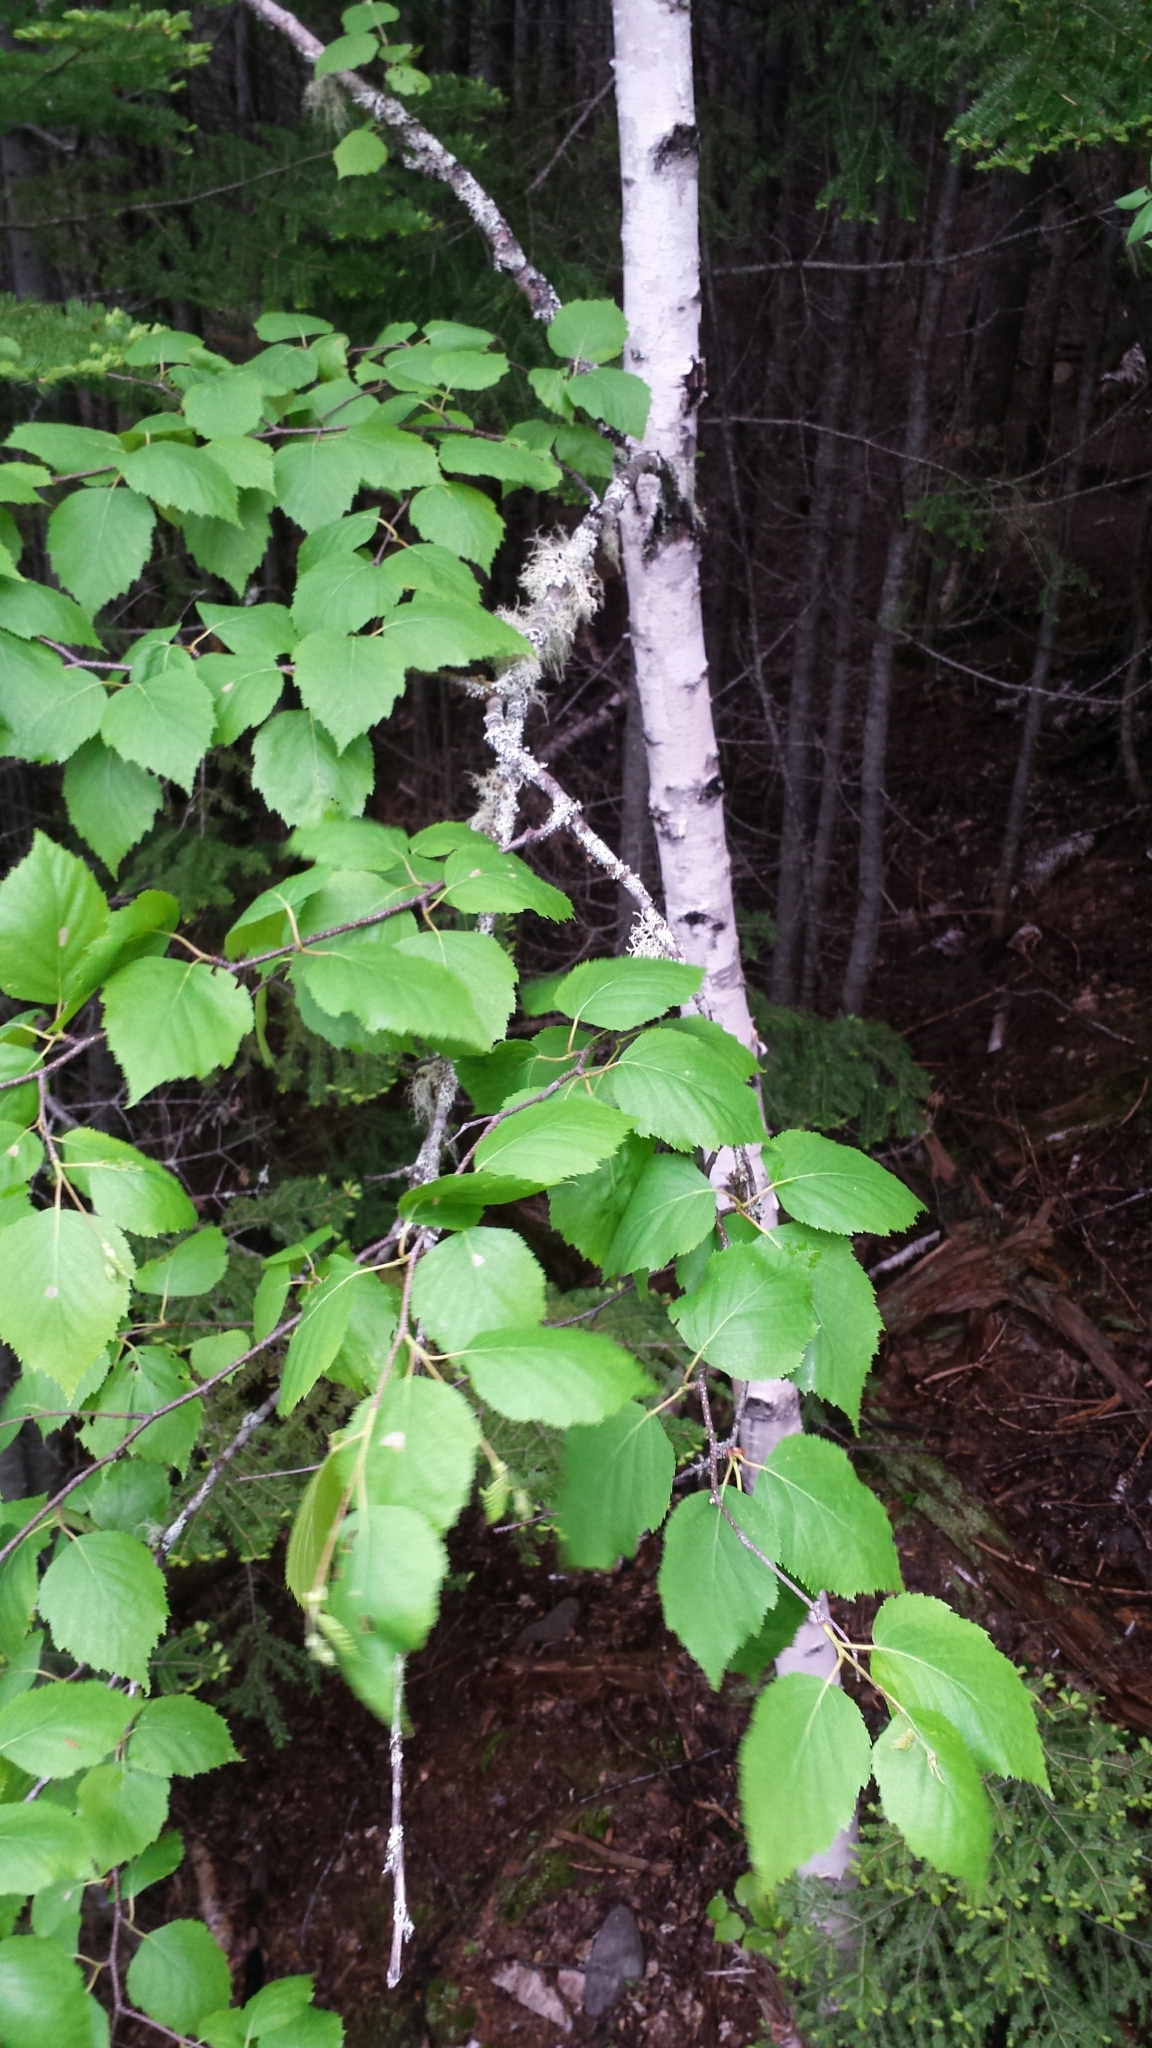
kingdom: Plantae
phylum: Tracheophyta
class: Magnoliopsida
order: Fagales
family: Betulaceae
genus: Betula
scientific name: Betula papyrifera
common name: Paper birch
